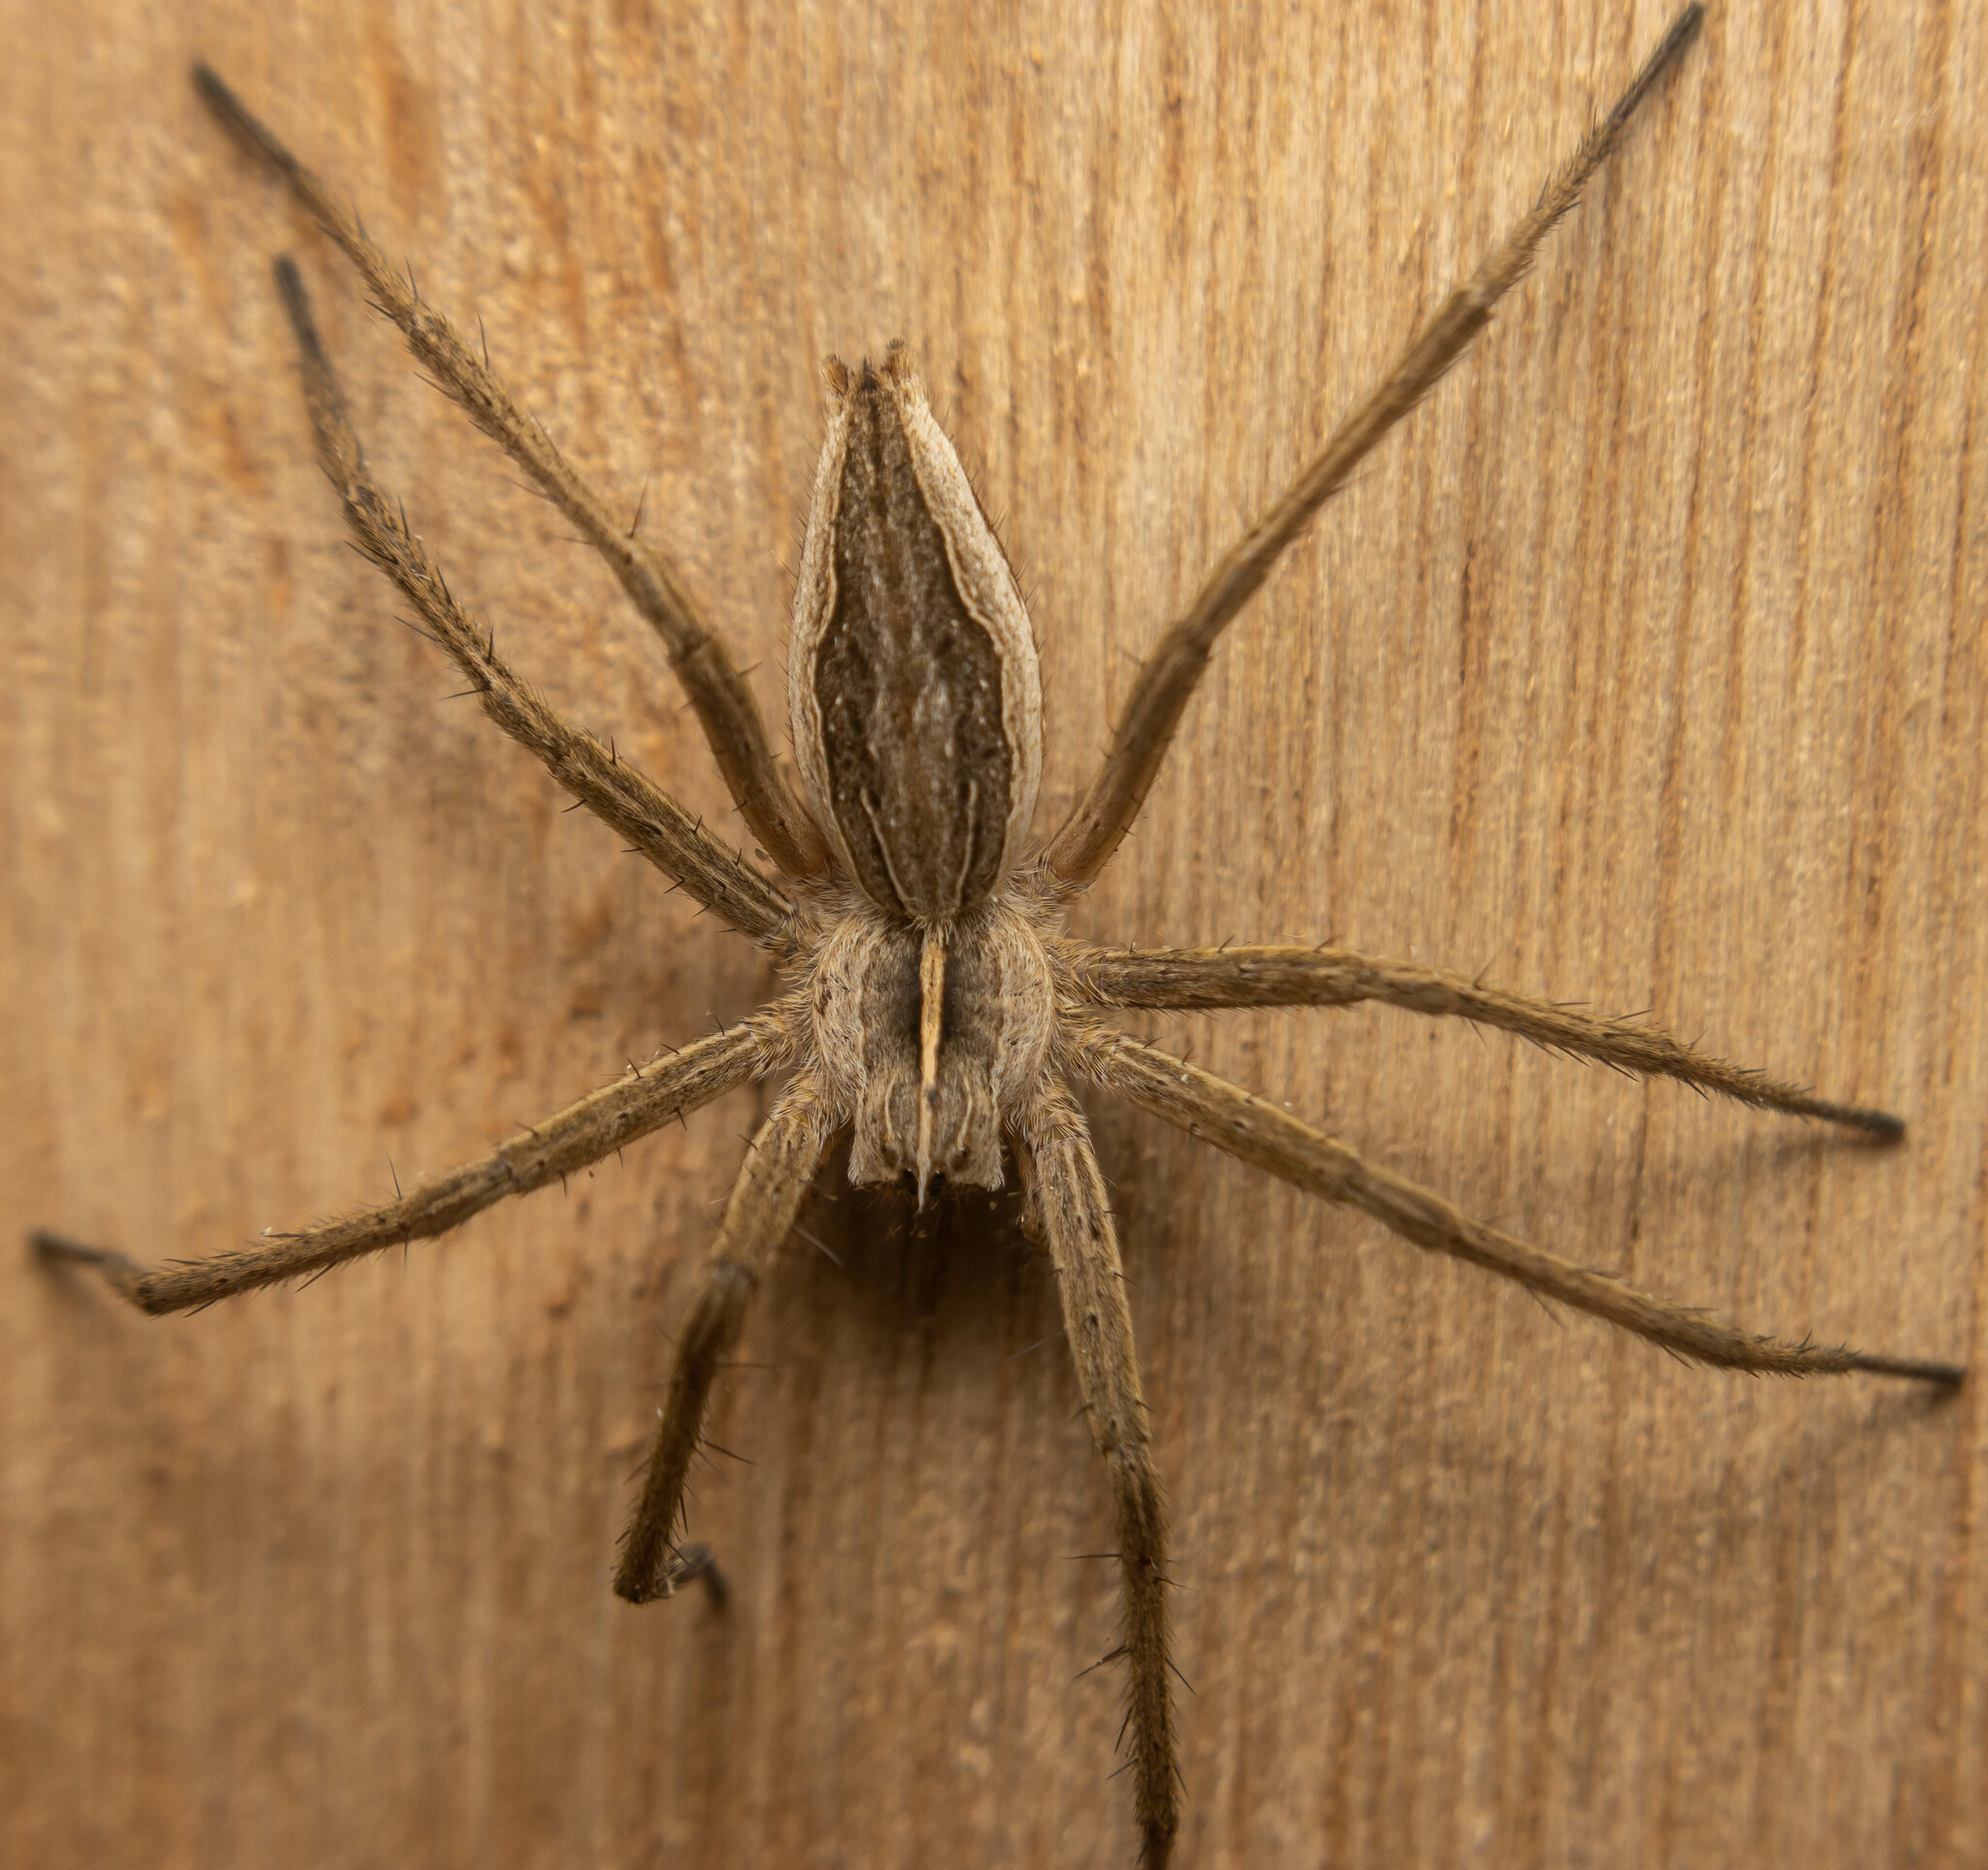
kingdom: Animalia
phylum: Arthropoda
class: Arachnida
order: Araneae
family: Pisauridae
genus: Pisaura
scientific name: Pisaura mirabilis
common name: Tent spider
